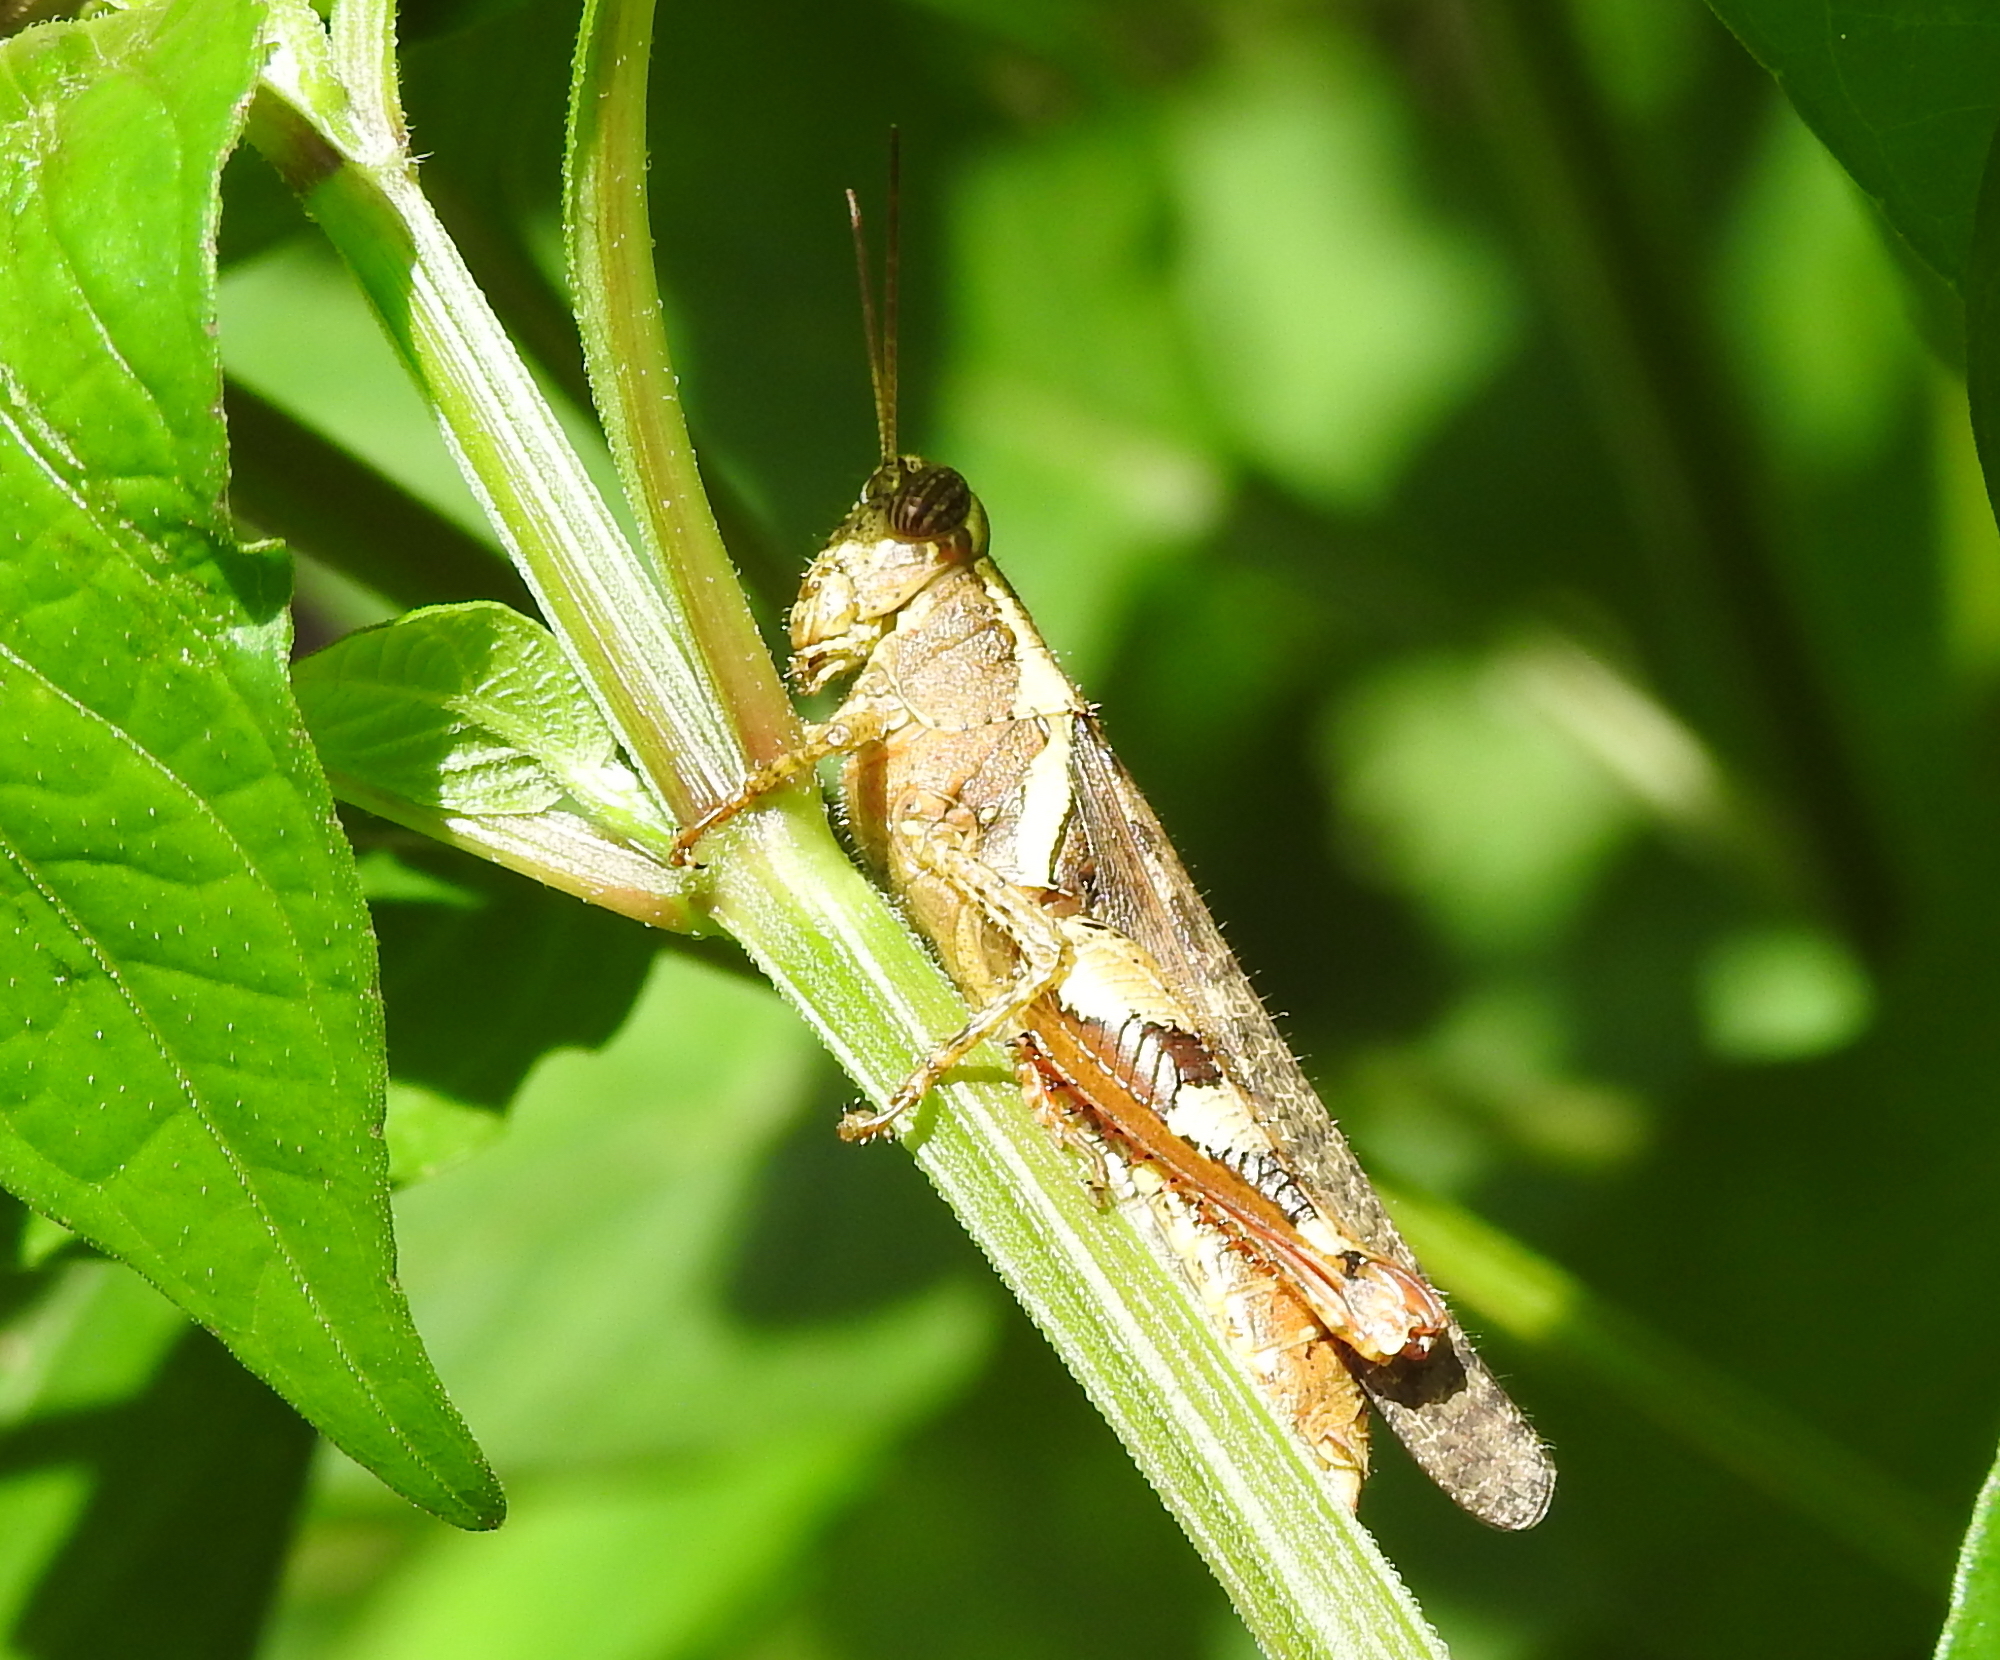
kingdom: Animalia
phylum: Arthropoda
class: Insecta
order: Orthoptera
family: Acrididae
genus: Xenocatantops
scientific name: Xenocatantops humile
